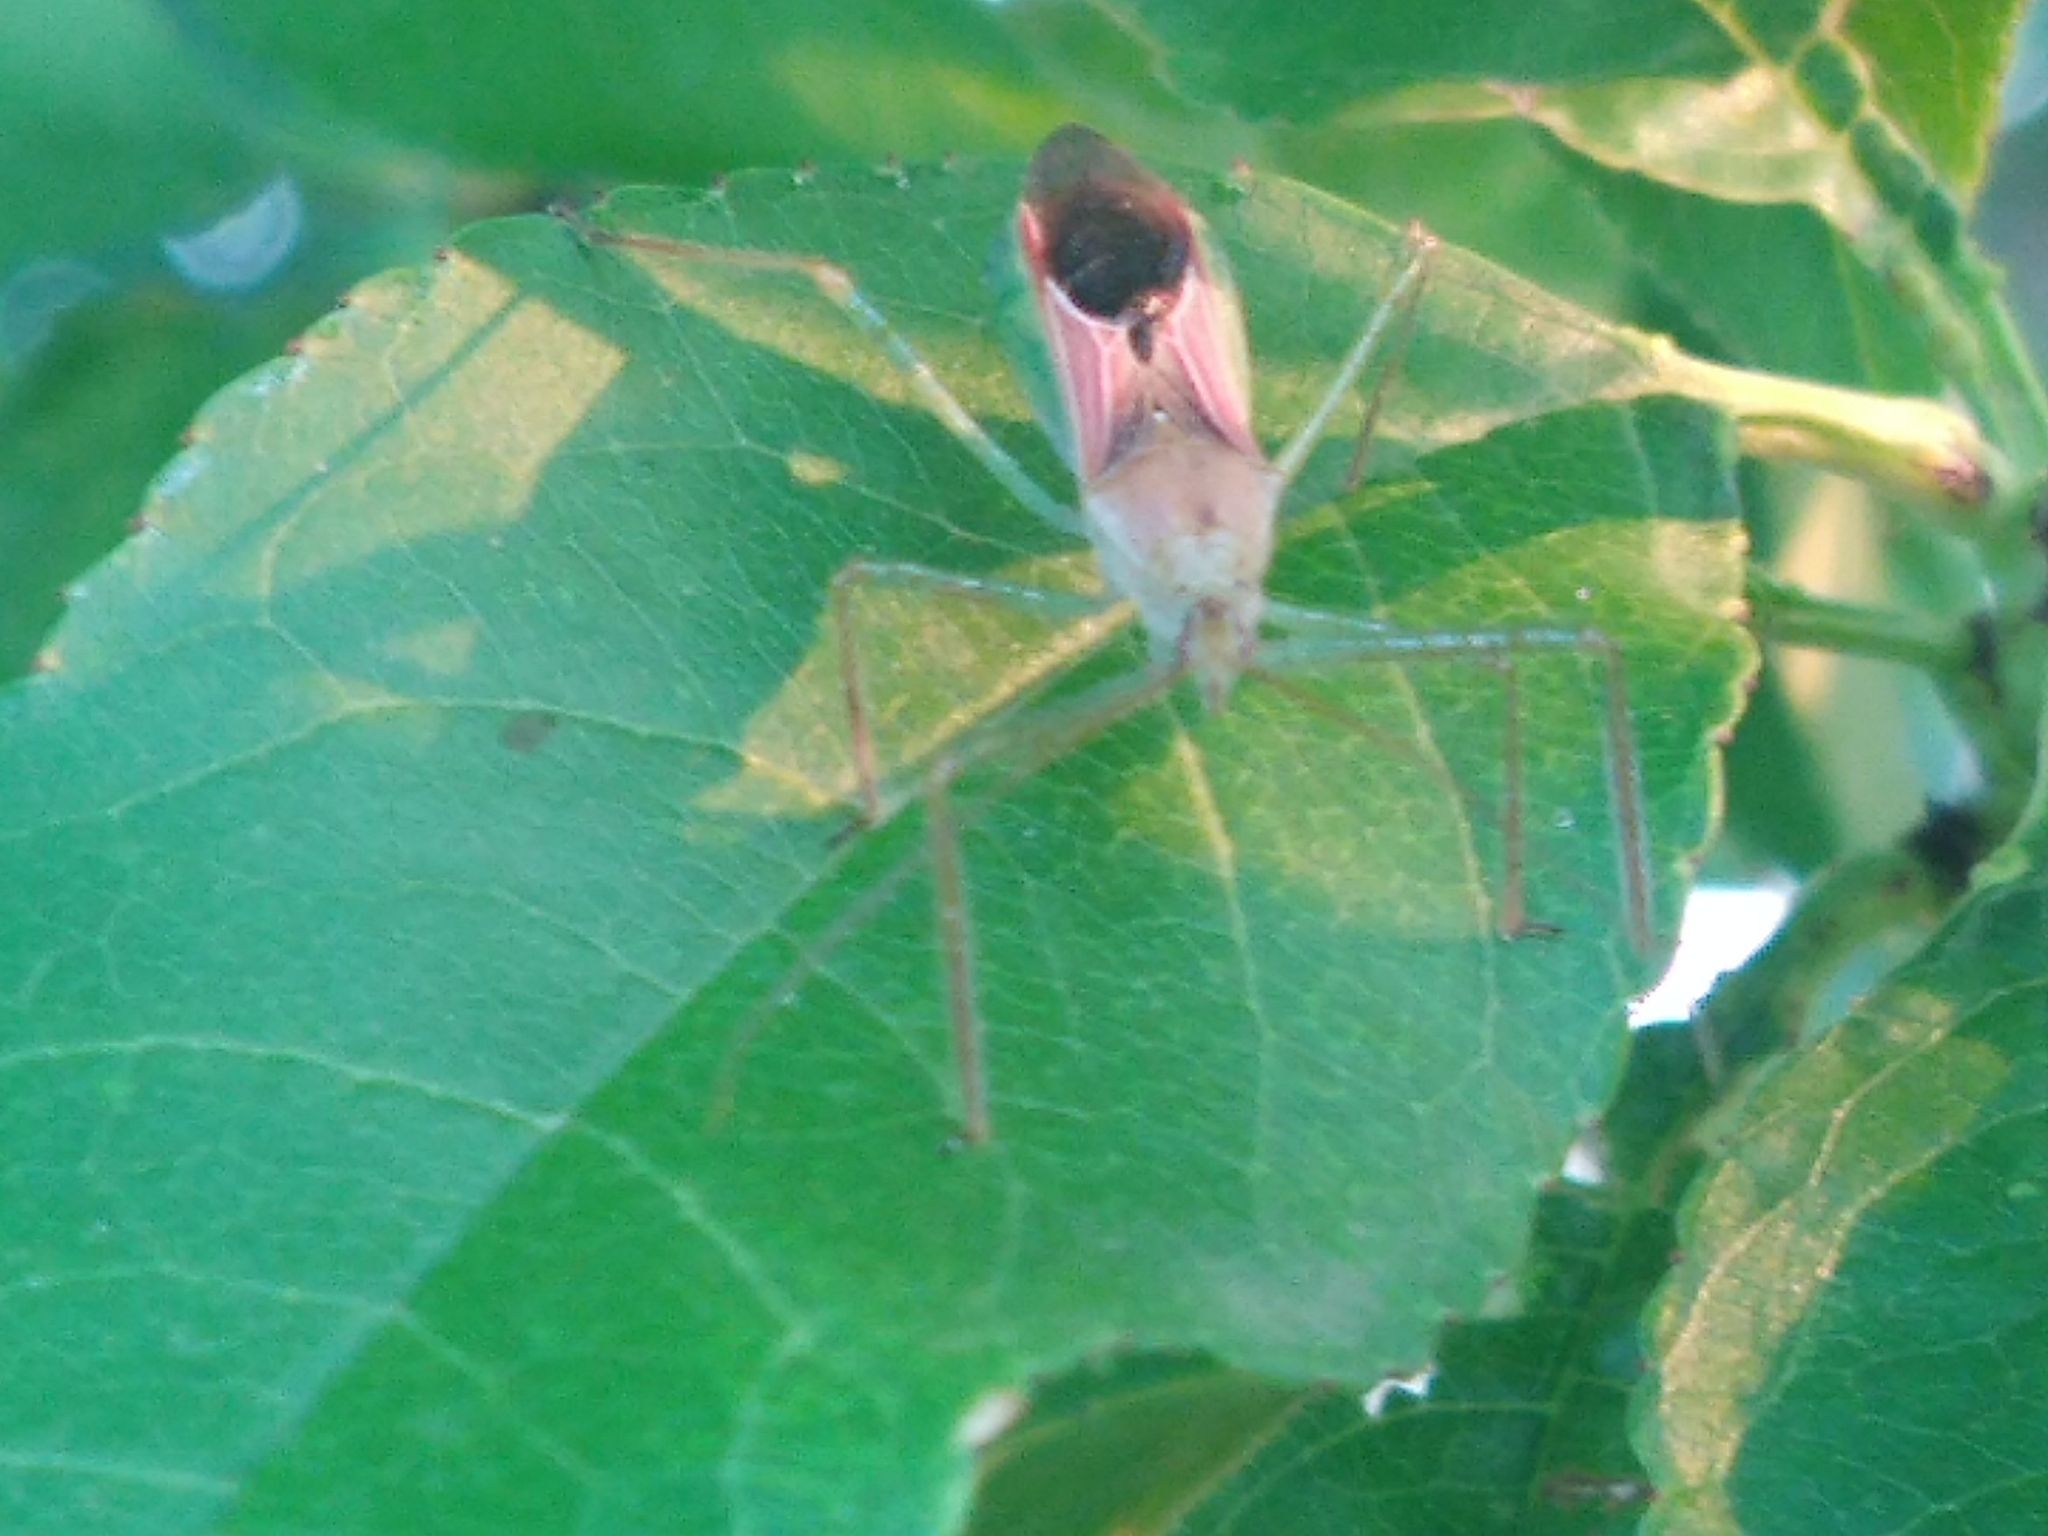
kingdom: Animalia
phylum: Arthropoda
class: Insecta
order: Hemiptera
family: Reduviidae
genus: Zelus
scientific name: Zelus renardii
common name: Assassin bug
